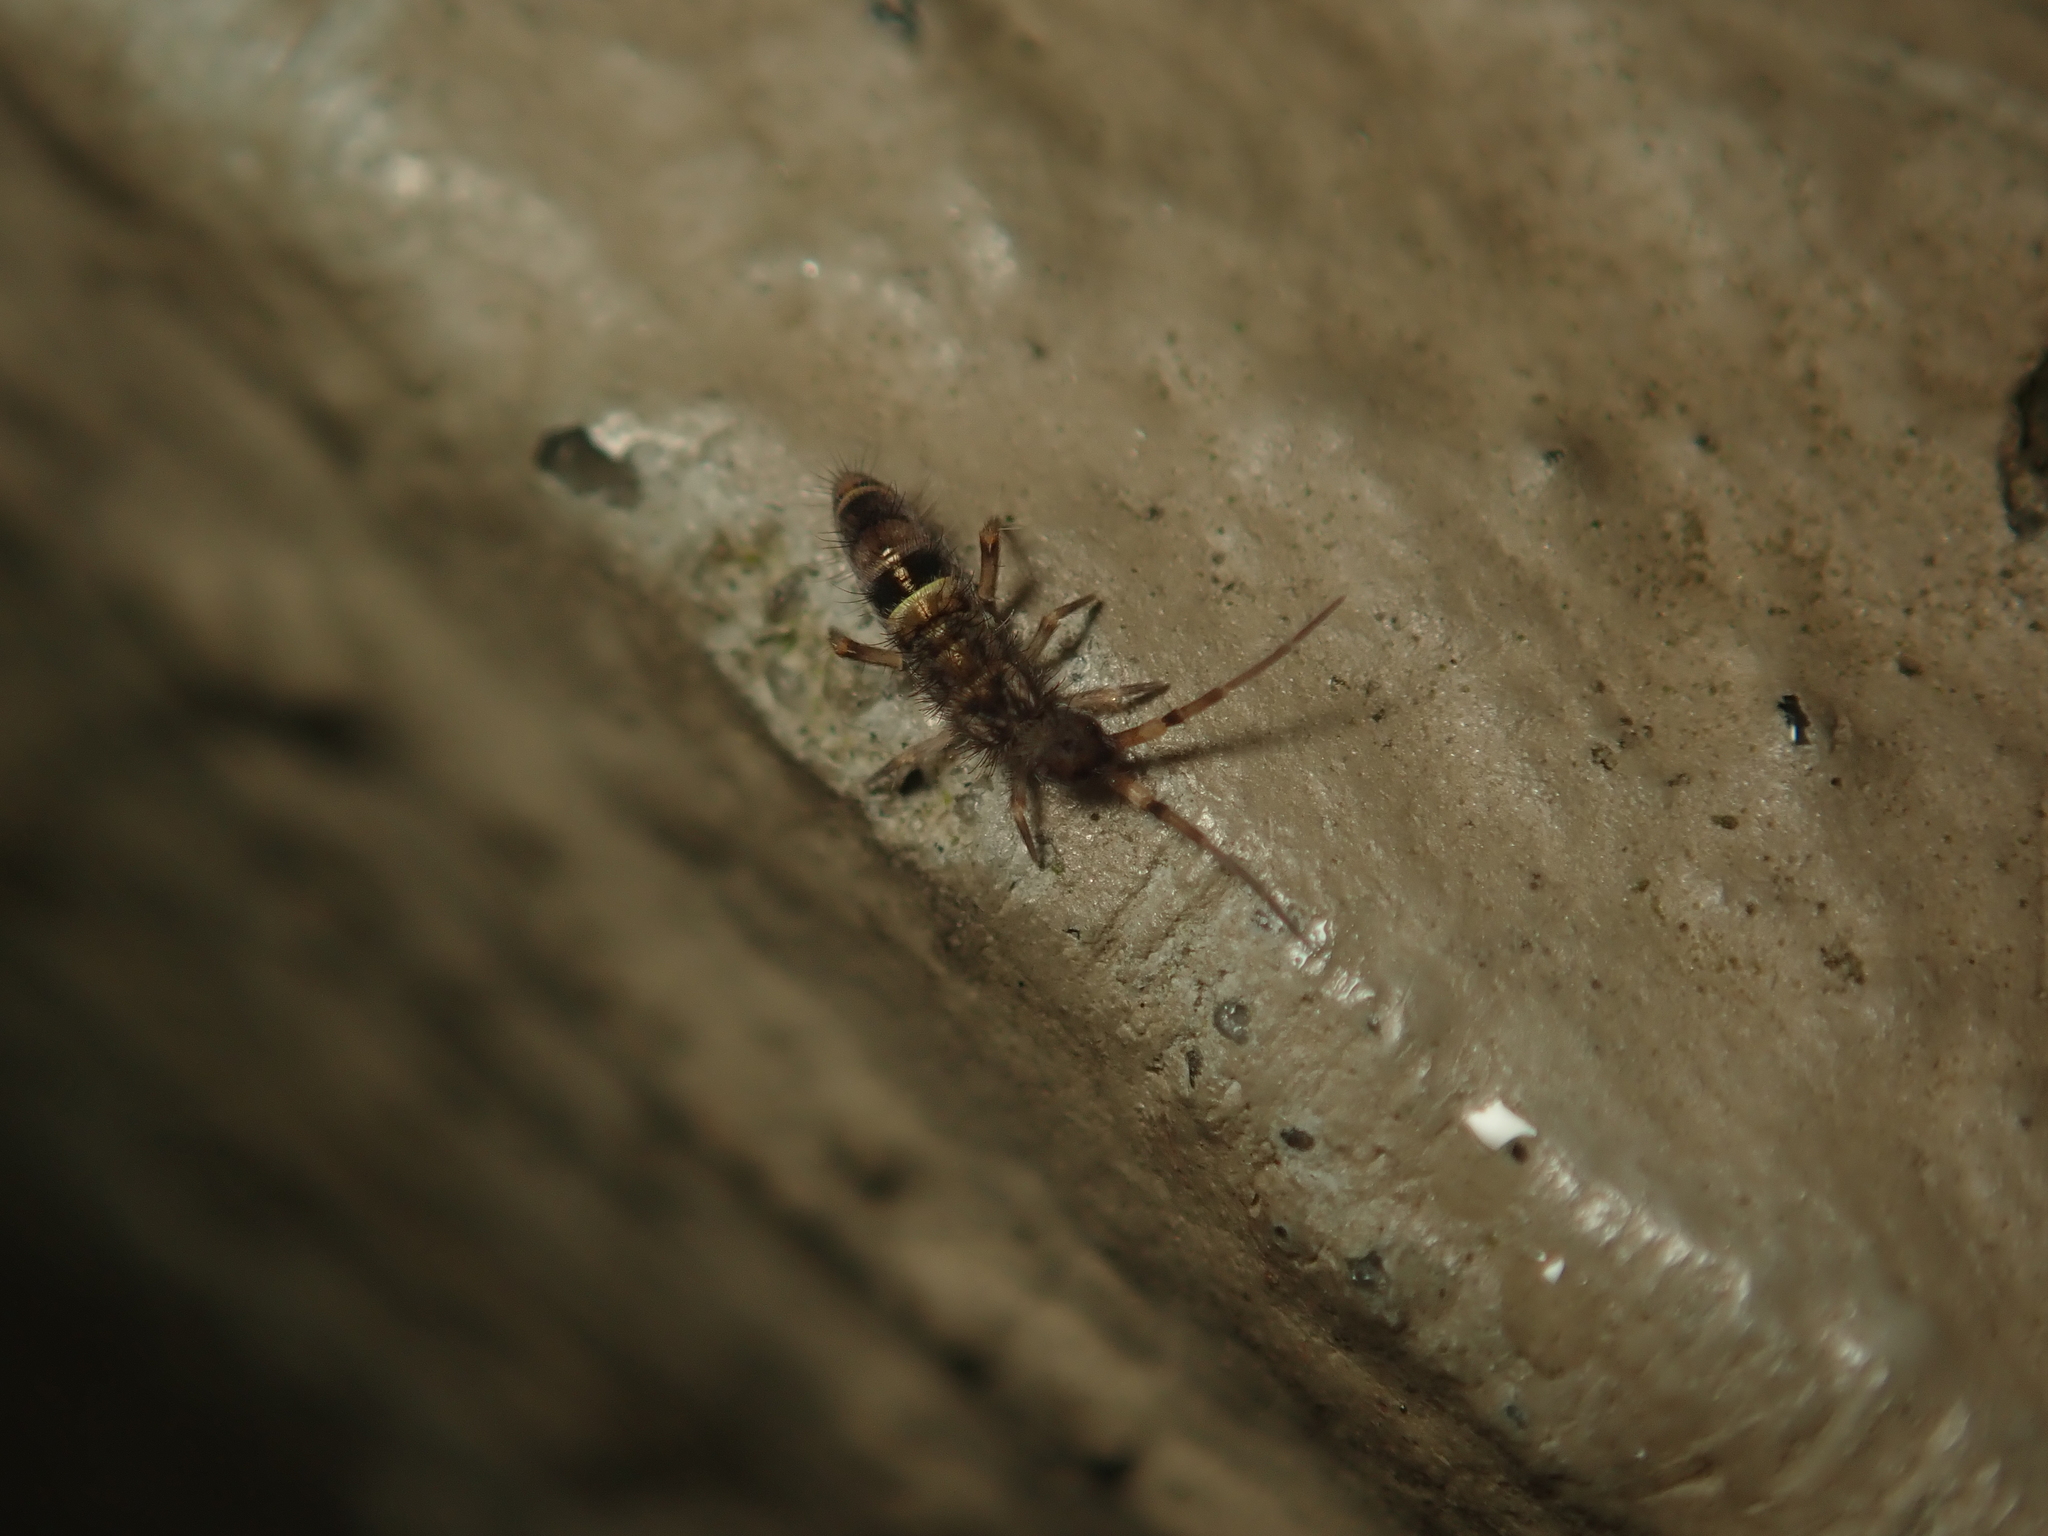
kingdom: Animalia
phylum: Arthropoda
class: Collembola
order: Entomobryomorpha
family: Orchesellidae
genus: Orchesella
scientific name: Orchesella cincta
